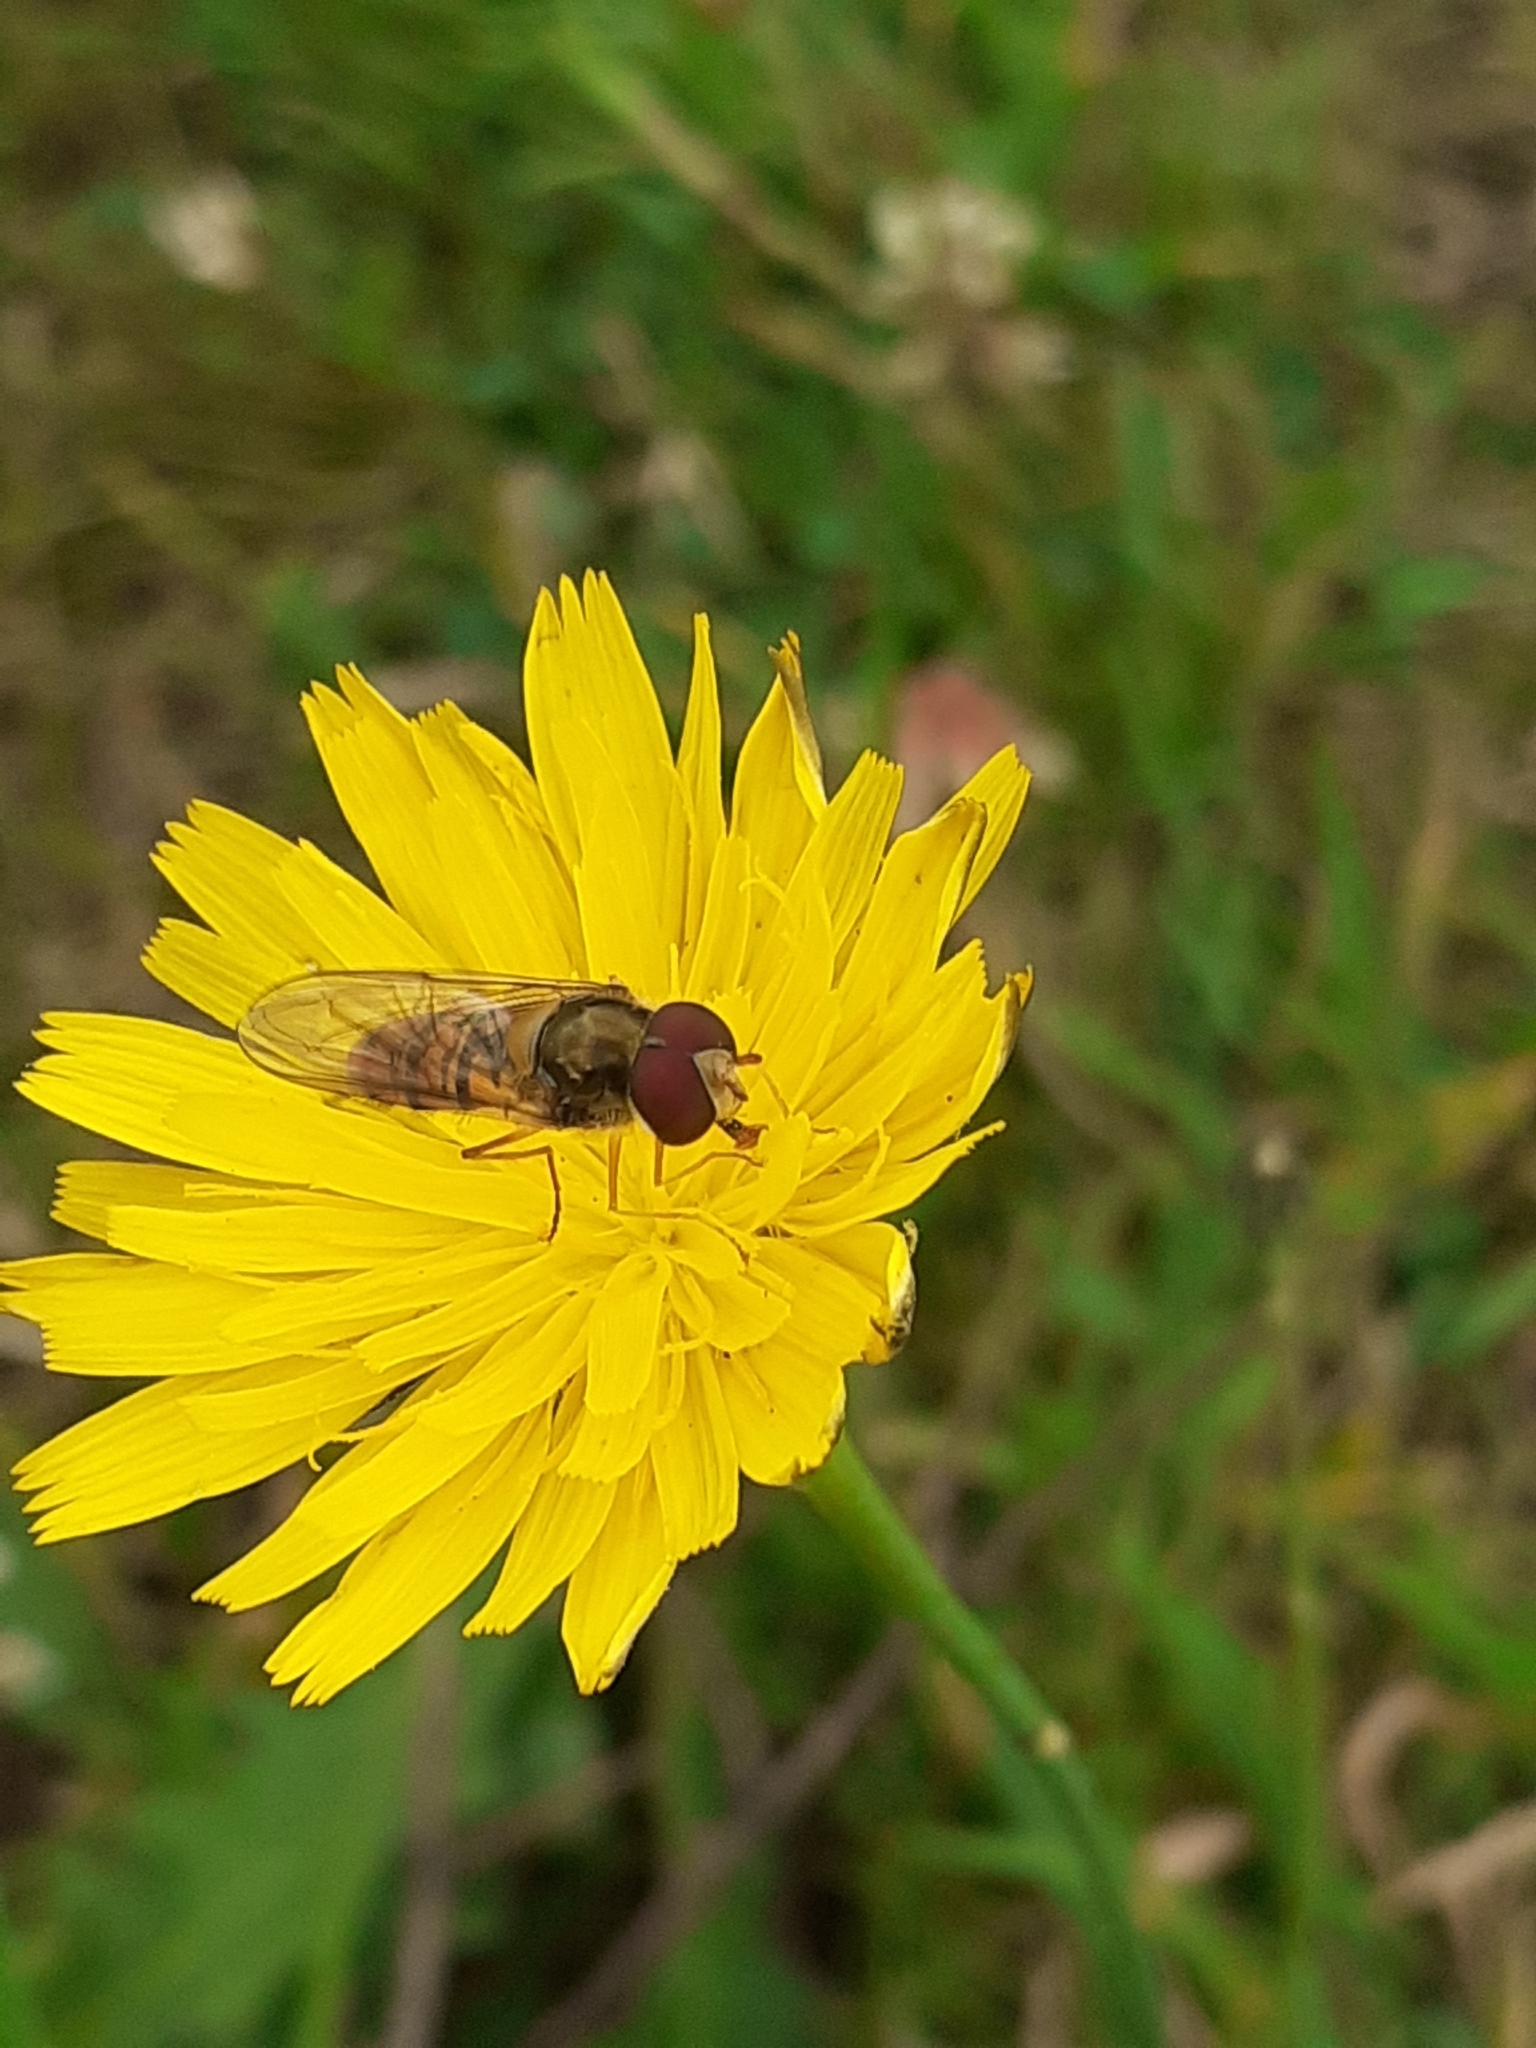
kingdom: Animalia
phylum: Arthropoda
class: Insecta
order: Diptera
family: Syrphidae
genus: Episyrphus
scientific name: Episyrphus balteatus
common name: Marmalade hoverfly
